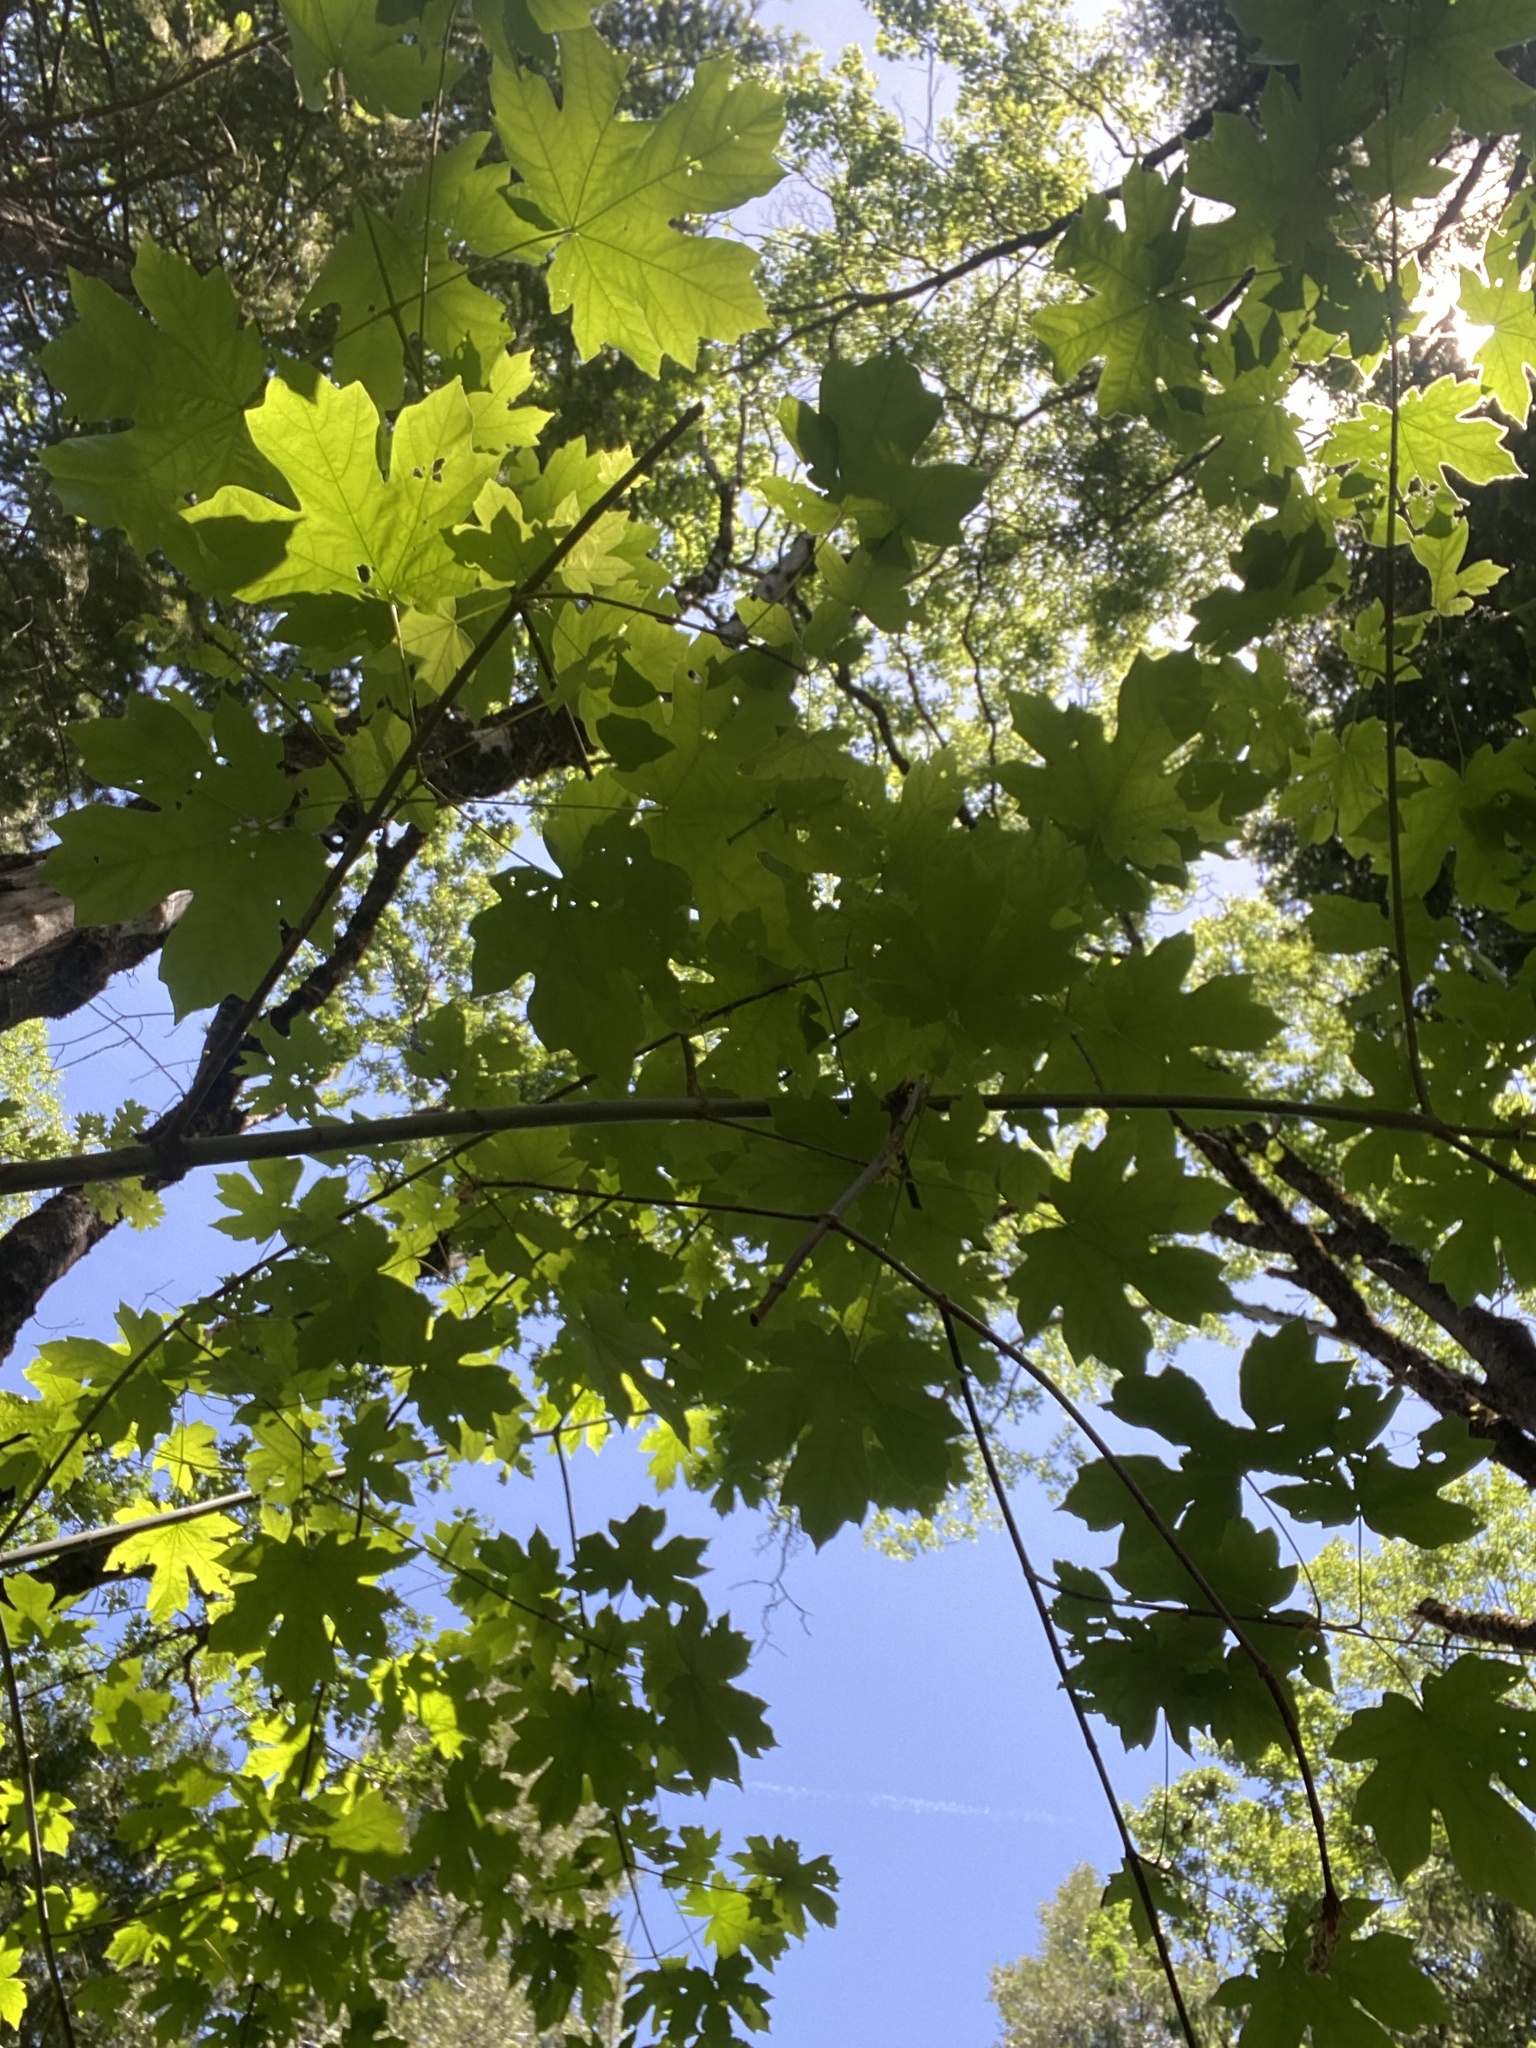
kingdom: Plantae
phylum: Tracheophyta
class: Magnoliopsida
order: Sapindales
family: Sapindaceae
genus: Acer
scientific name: Acer macrophyllum
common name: Oregon maple
